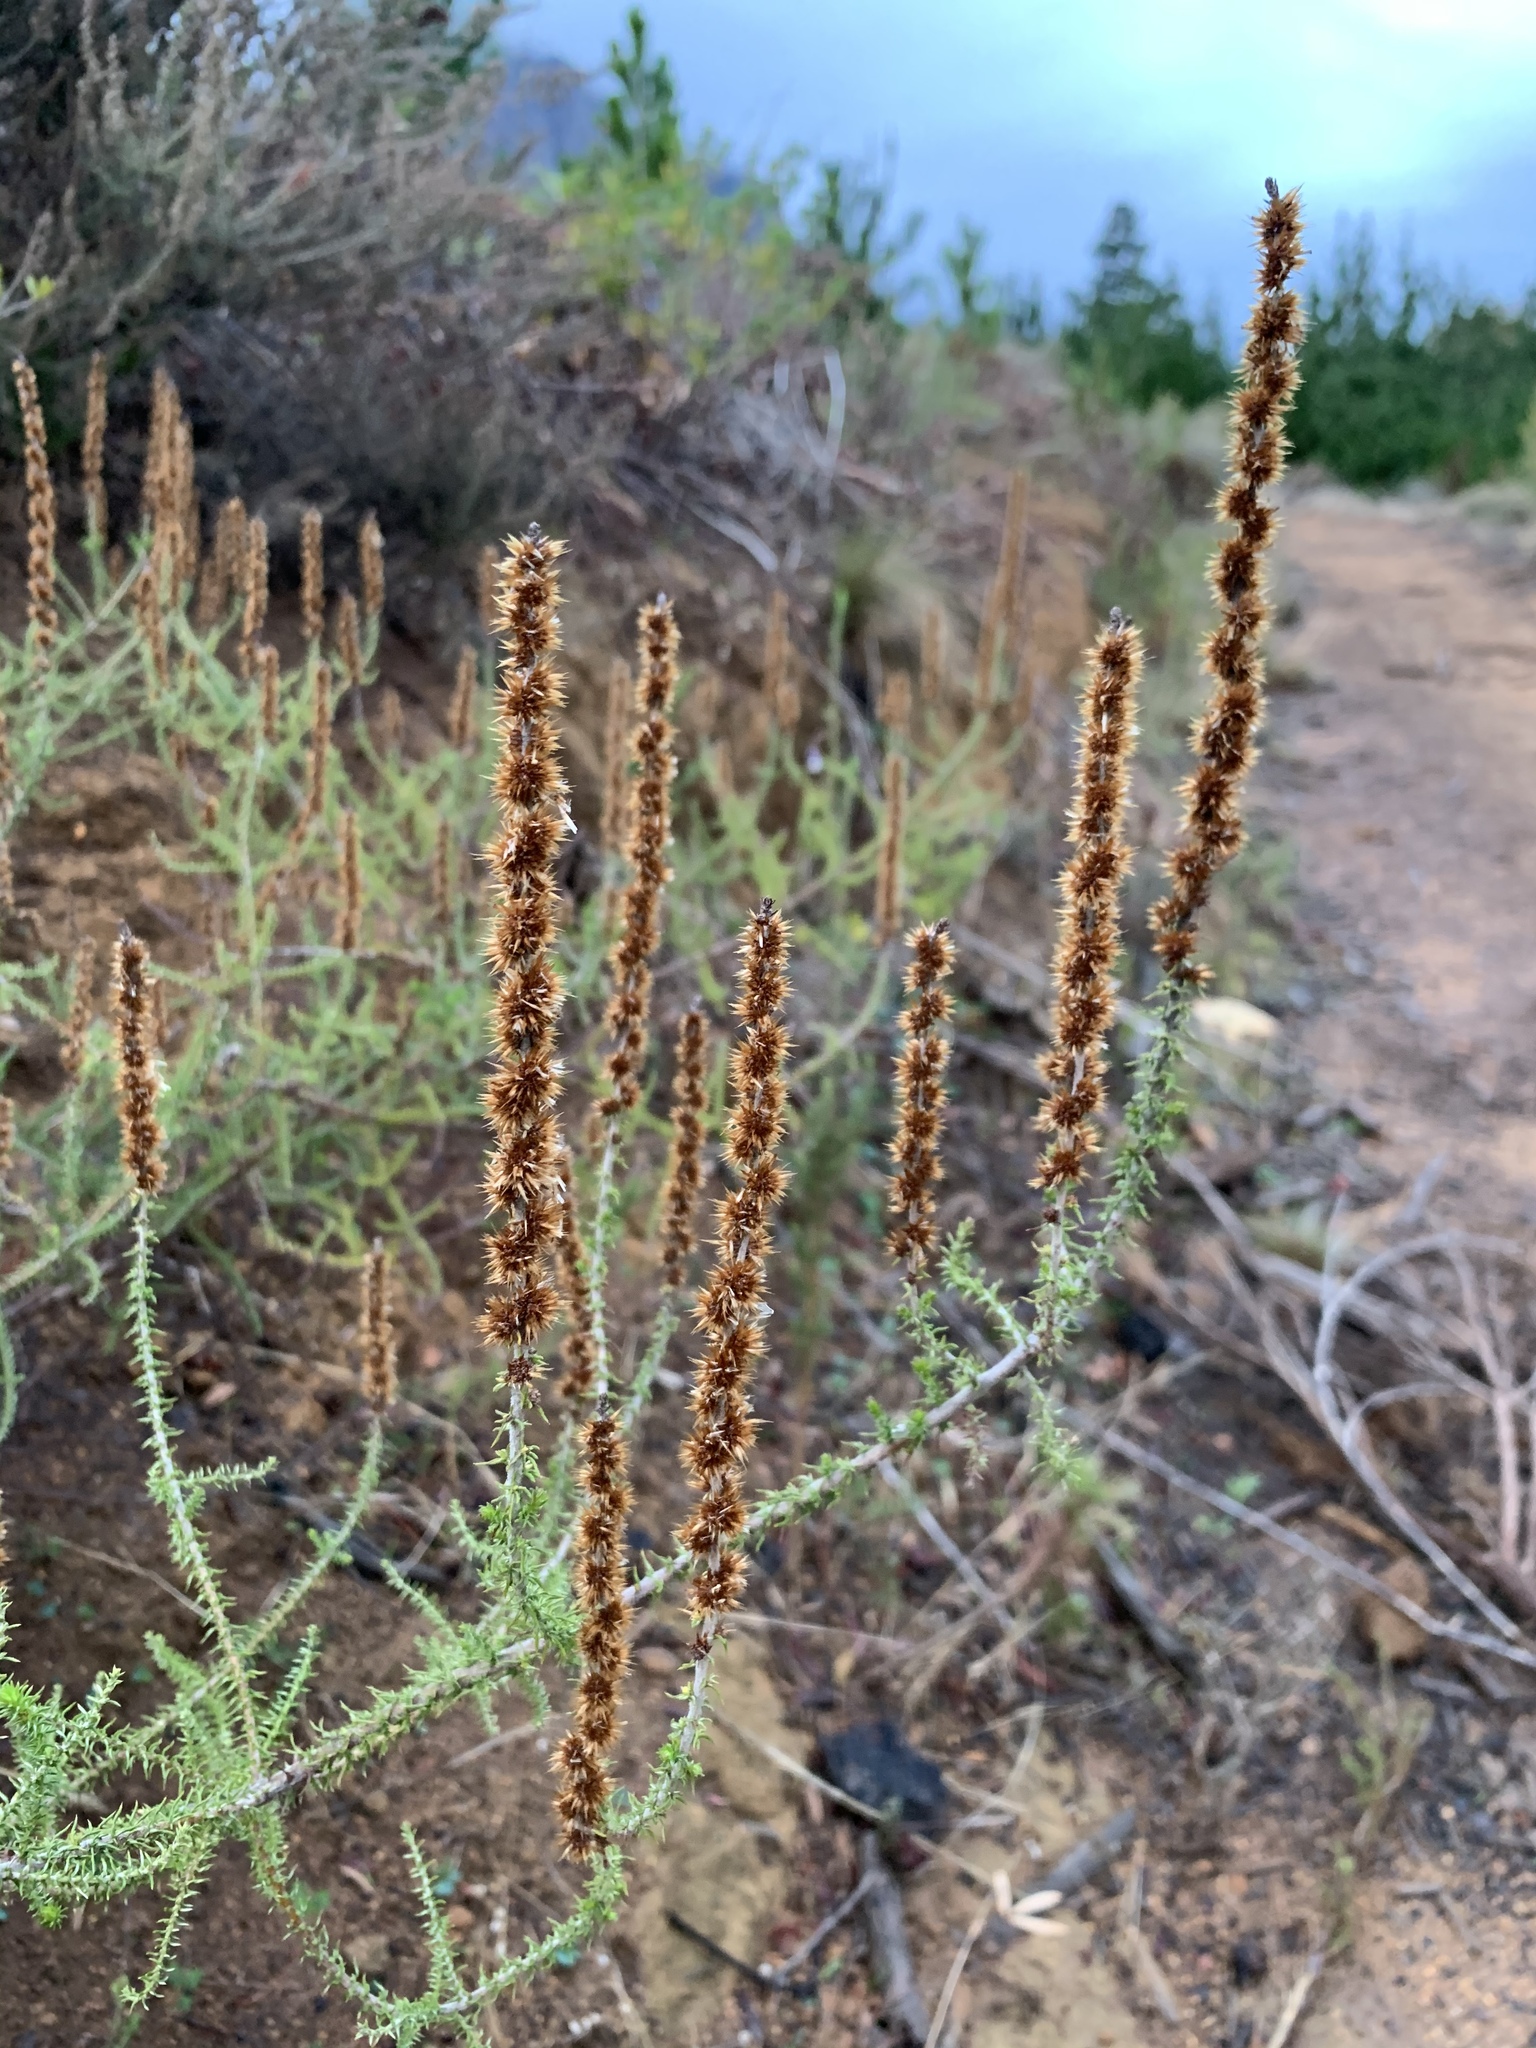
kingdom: Plantae
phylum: Tracheophyta
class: Magnoliopsida
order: Asterales
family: Asteraceae
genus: Seriphium
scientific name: Seriphium cinereum
